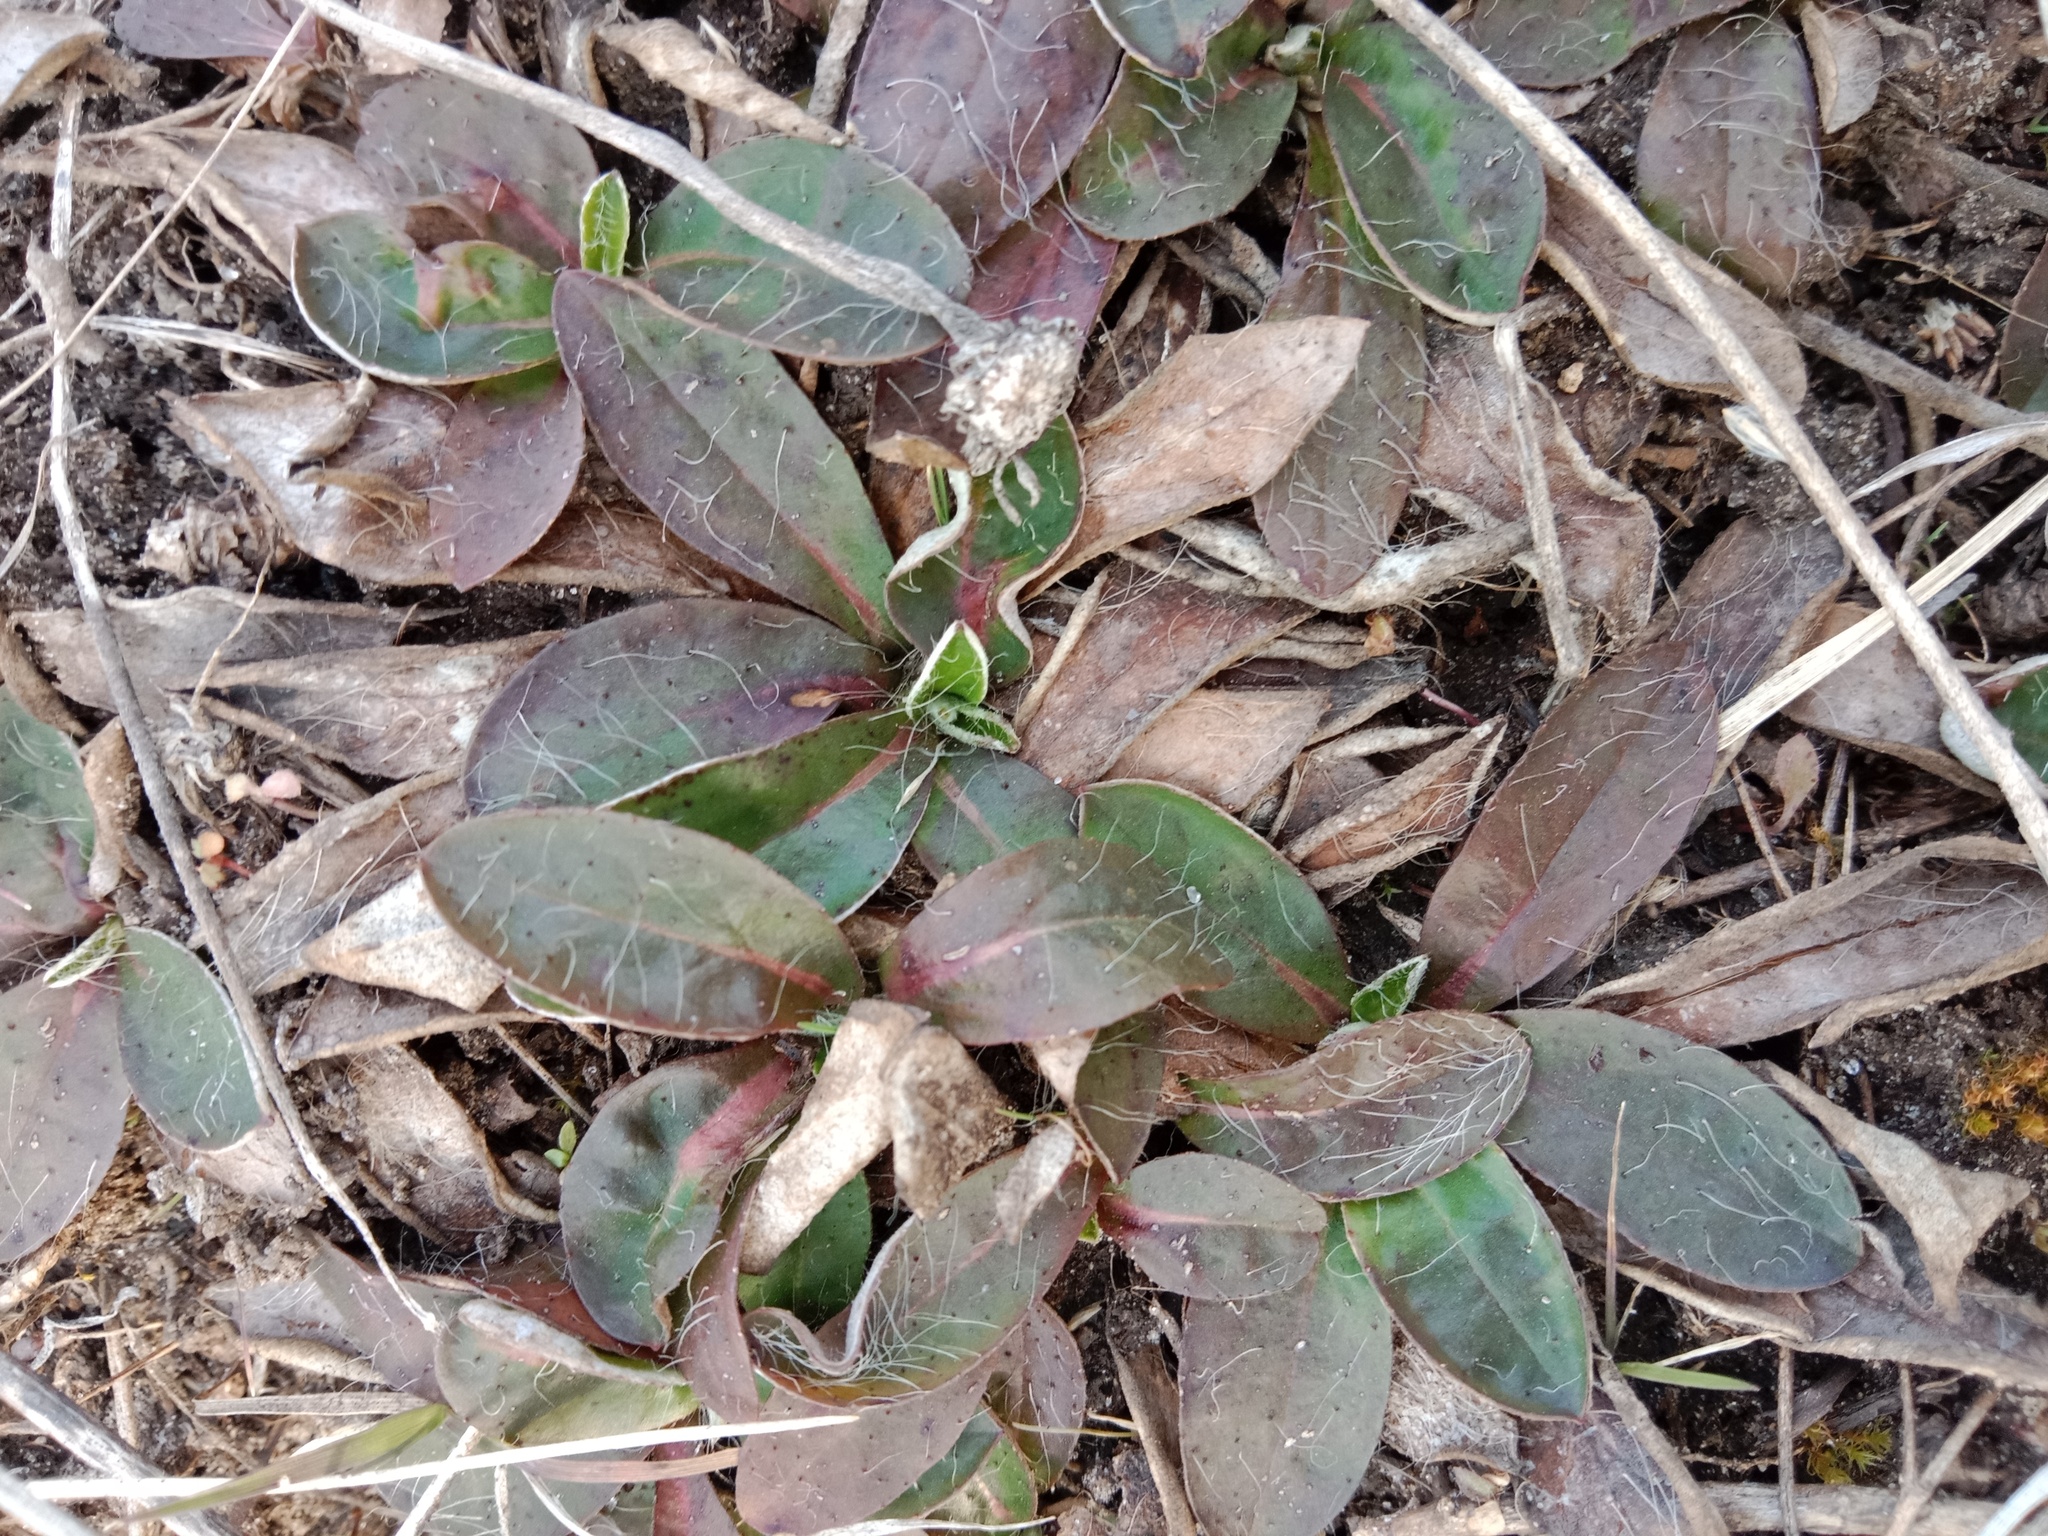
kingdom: Plantae
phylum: Tracheophyta
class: Magnoliopsida
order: Asterales
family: Asteraceae
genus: Pilosella
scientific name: Pilosella officinarum
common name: Mouse-ear hawkweed
